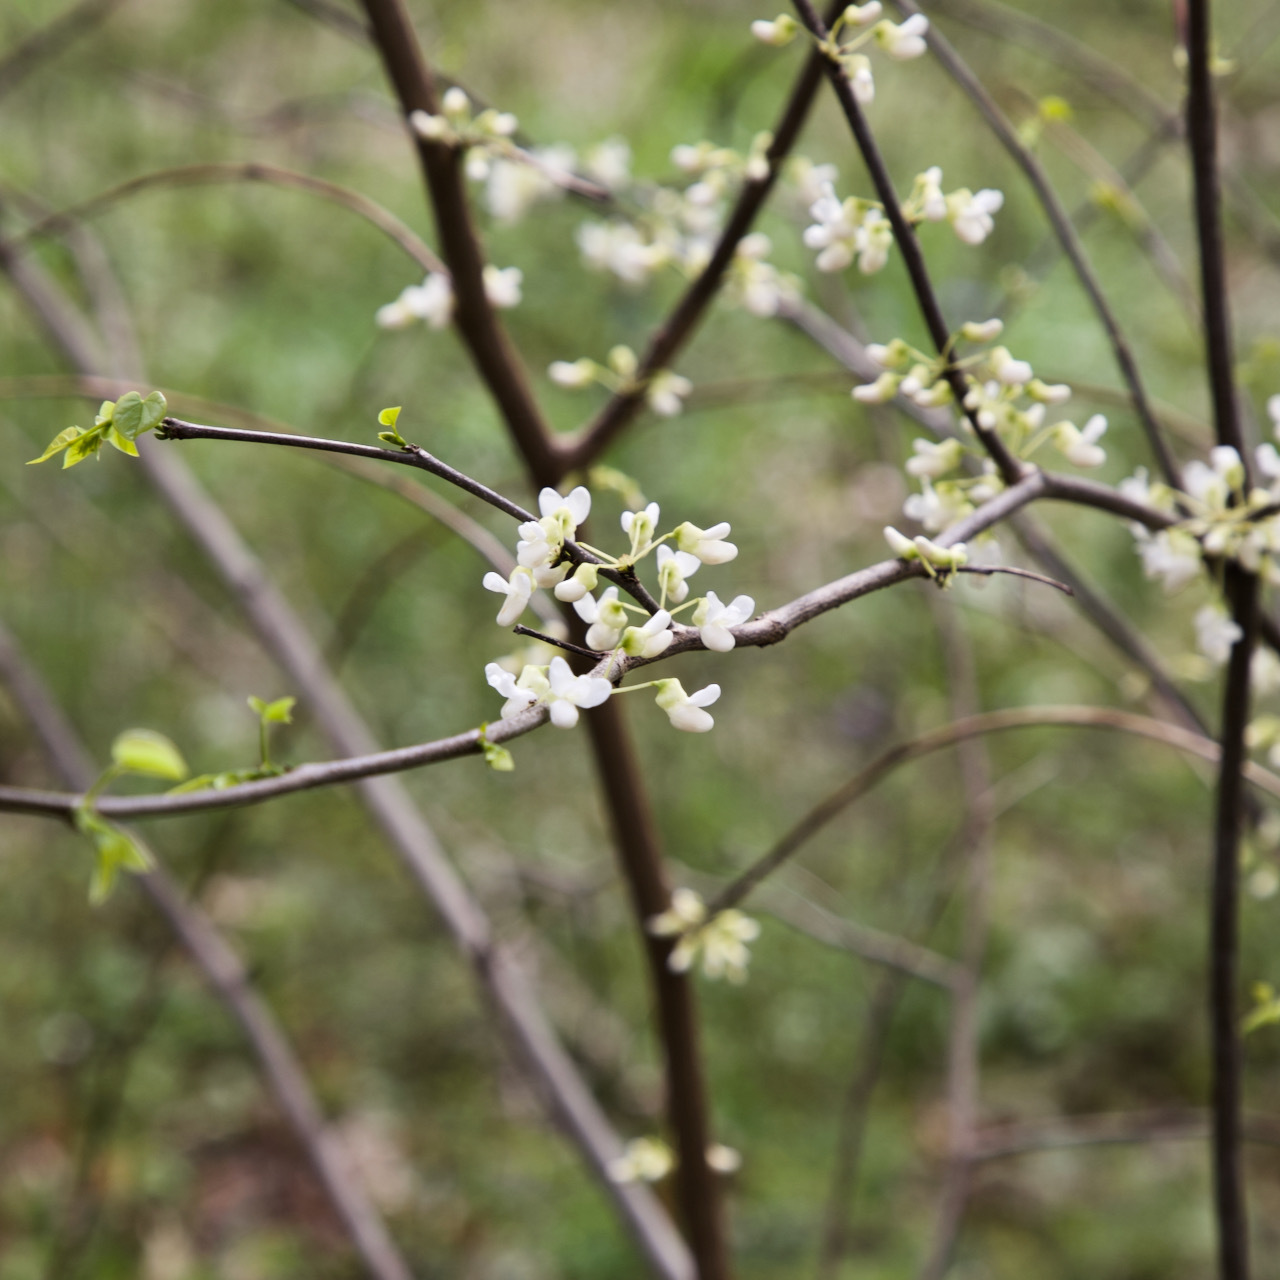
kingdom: Plantae
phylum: Tracheophyta
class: Magnoliopsida
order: Fabales
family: Fabaceae
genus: Cercis
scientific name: Cercis canadensis
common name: Eastern redbud
